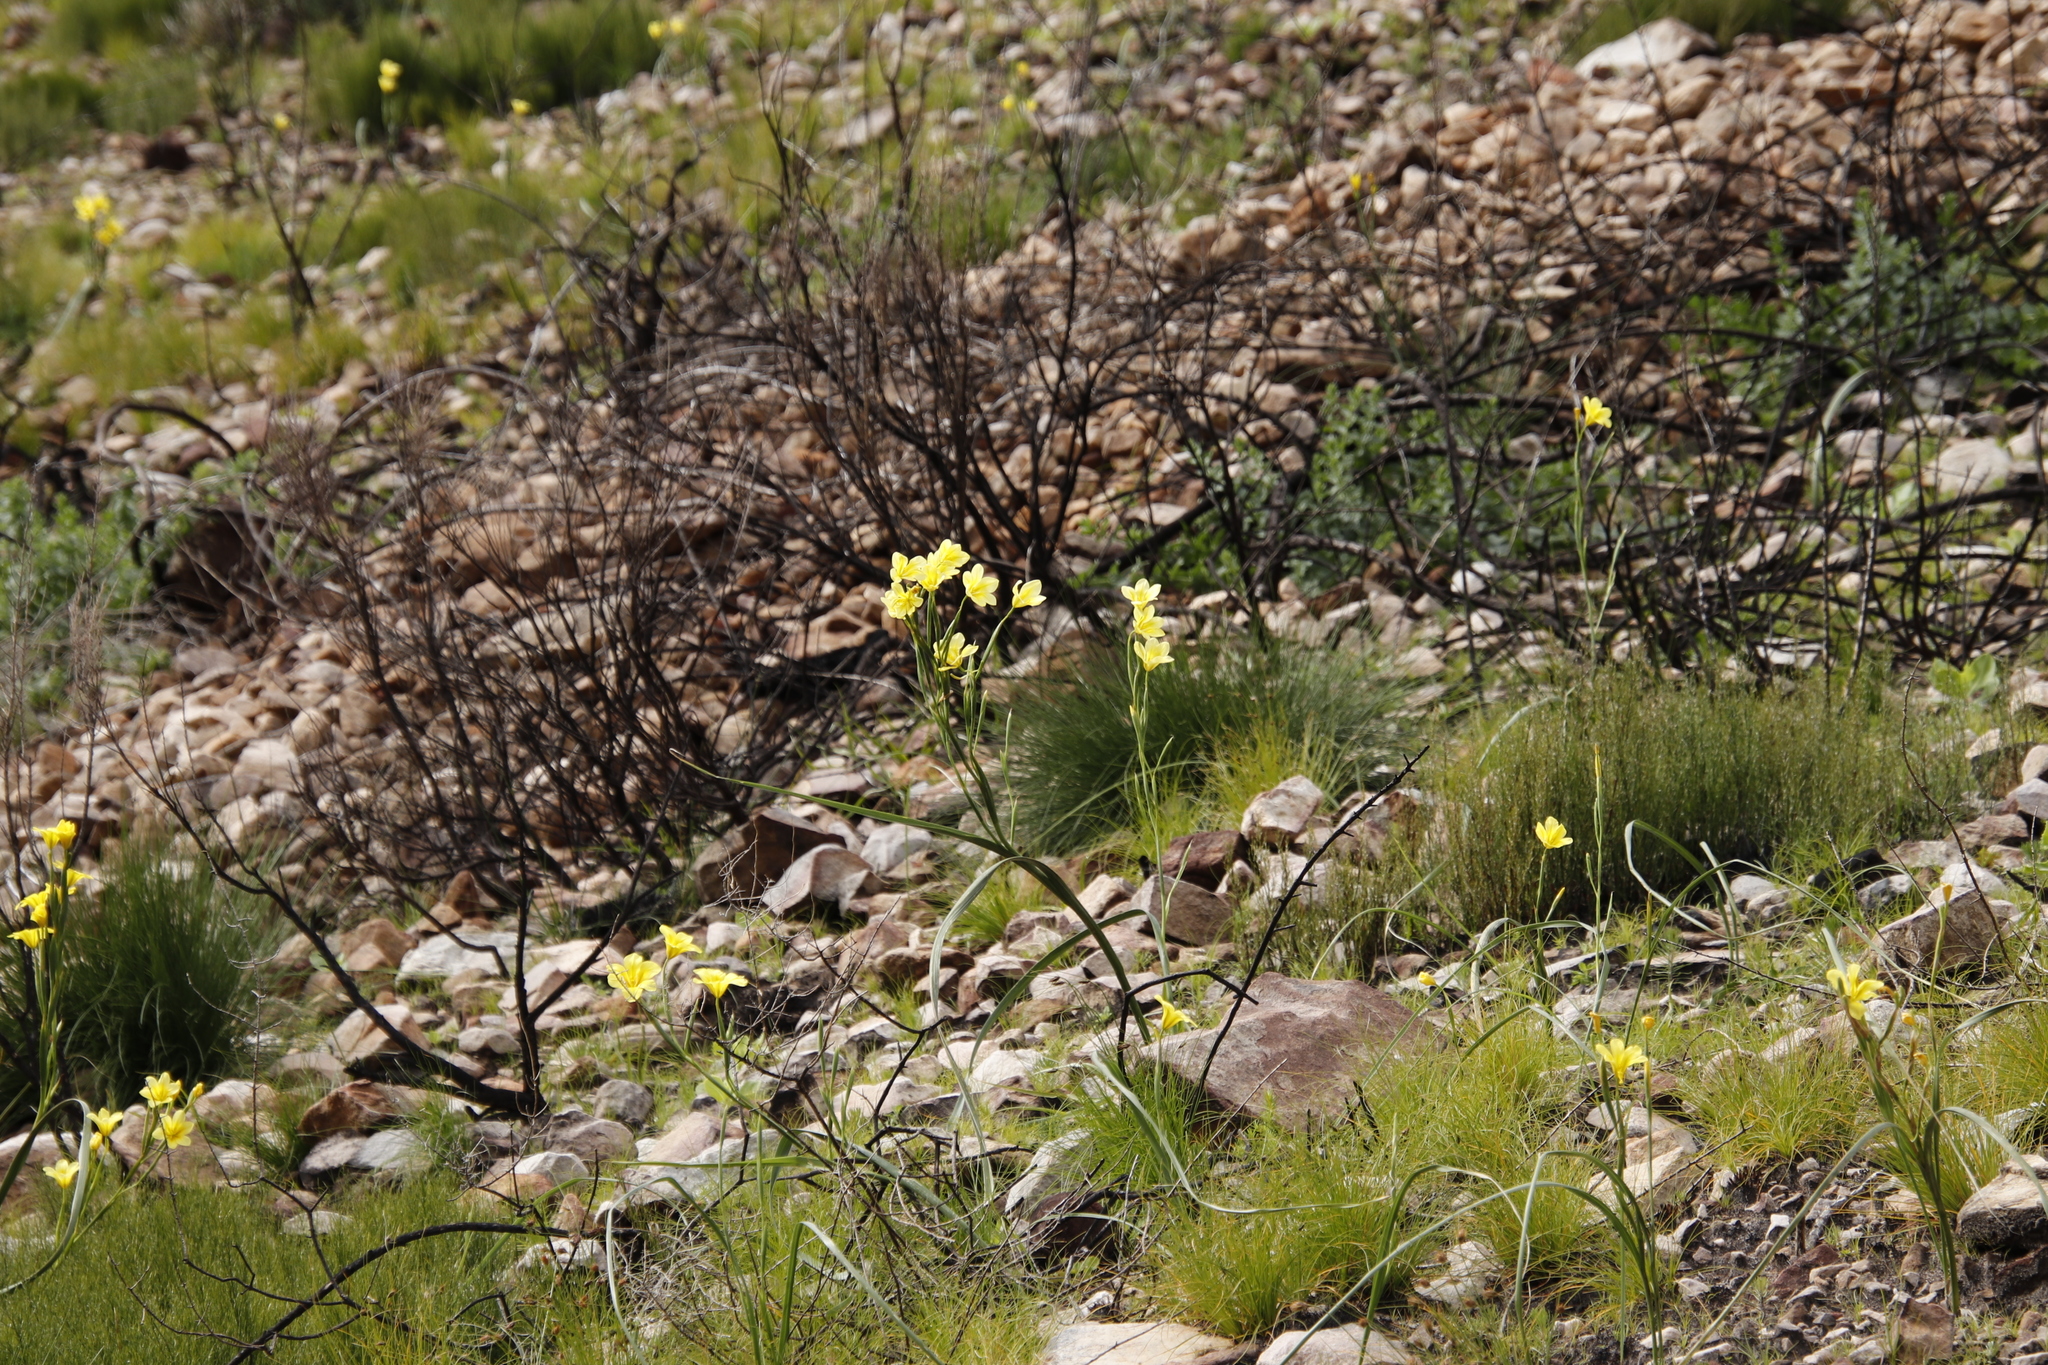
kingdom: Plantae
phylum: Tracheophyta
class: Liliopsida
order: Asparagales
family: Iridaceae
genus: Moraea
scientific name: Moraea ochroleuca
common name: Red tulp
